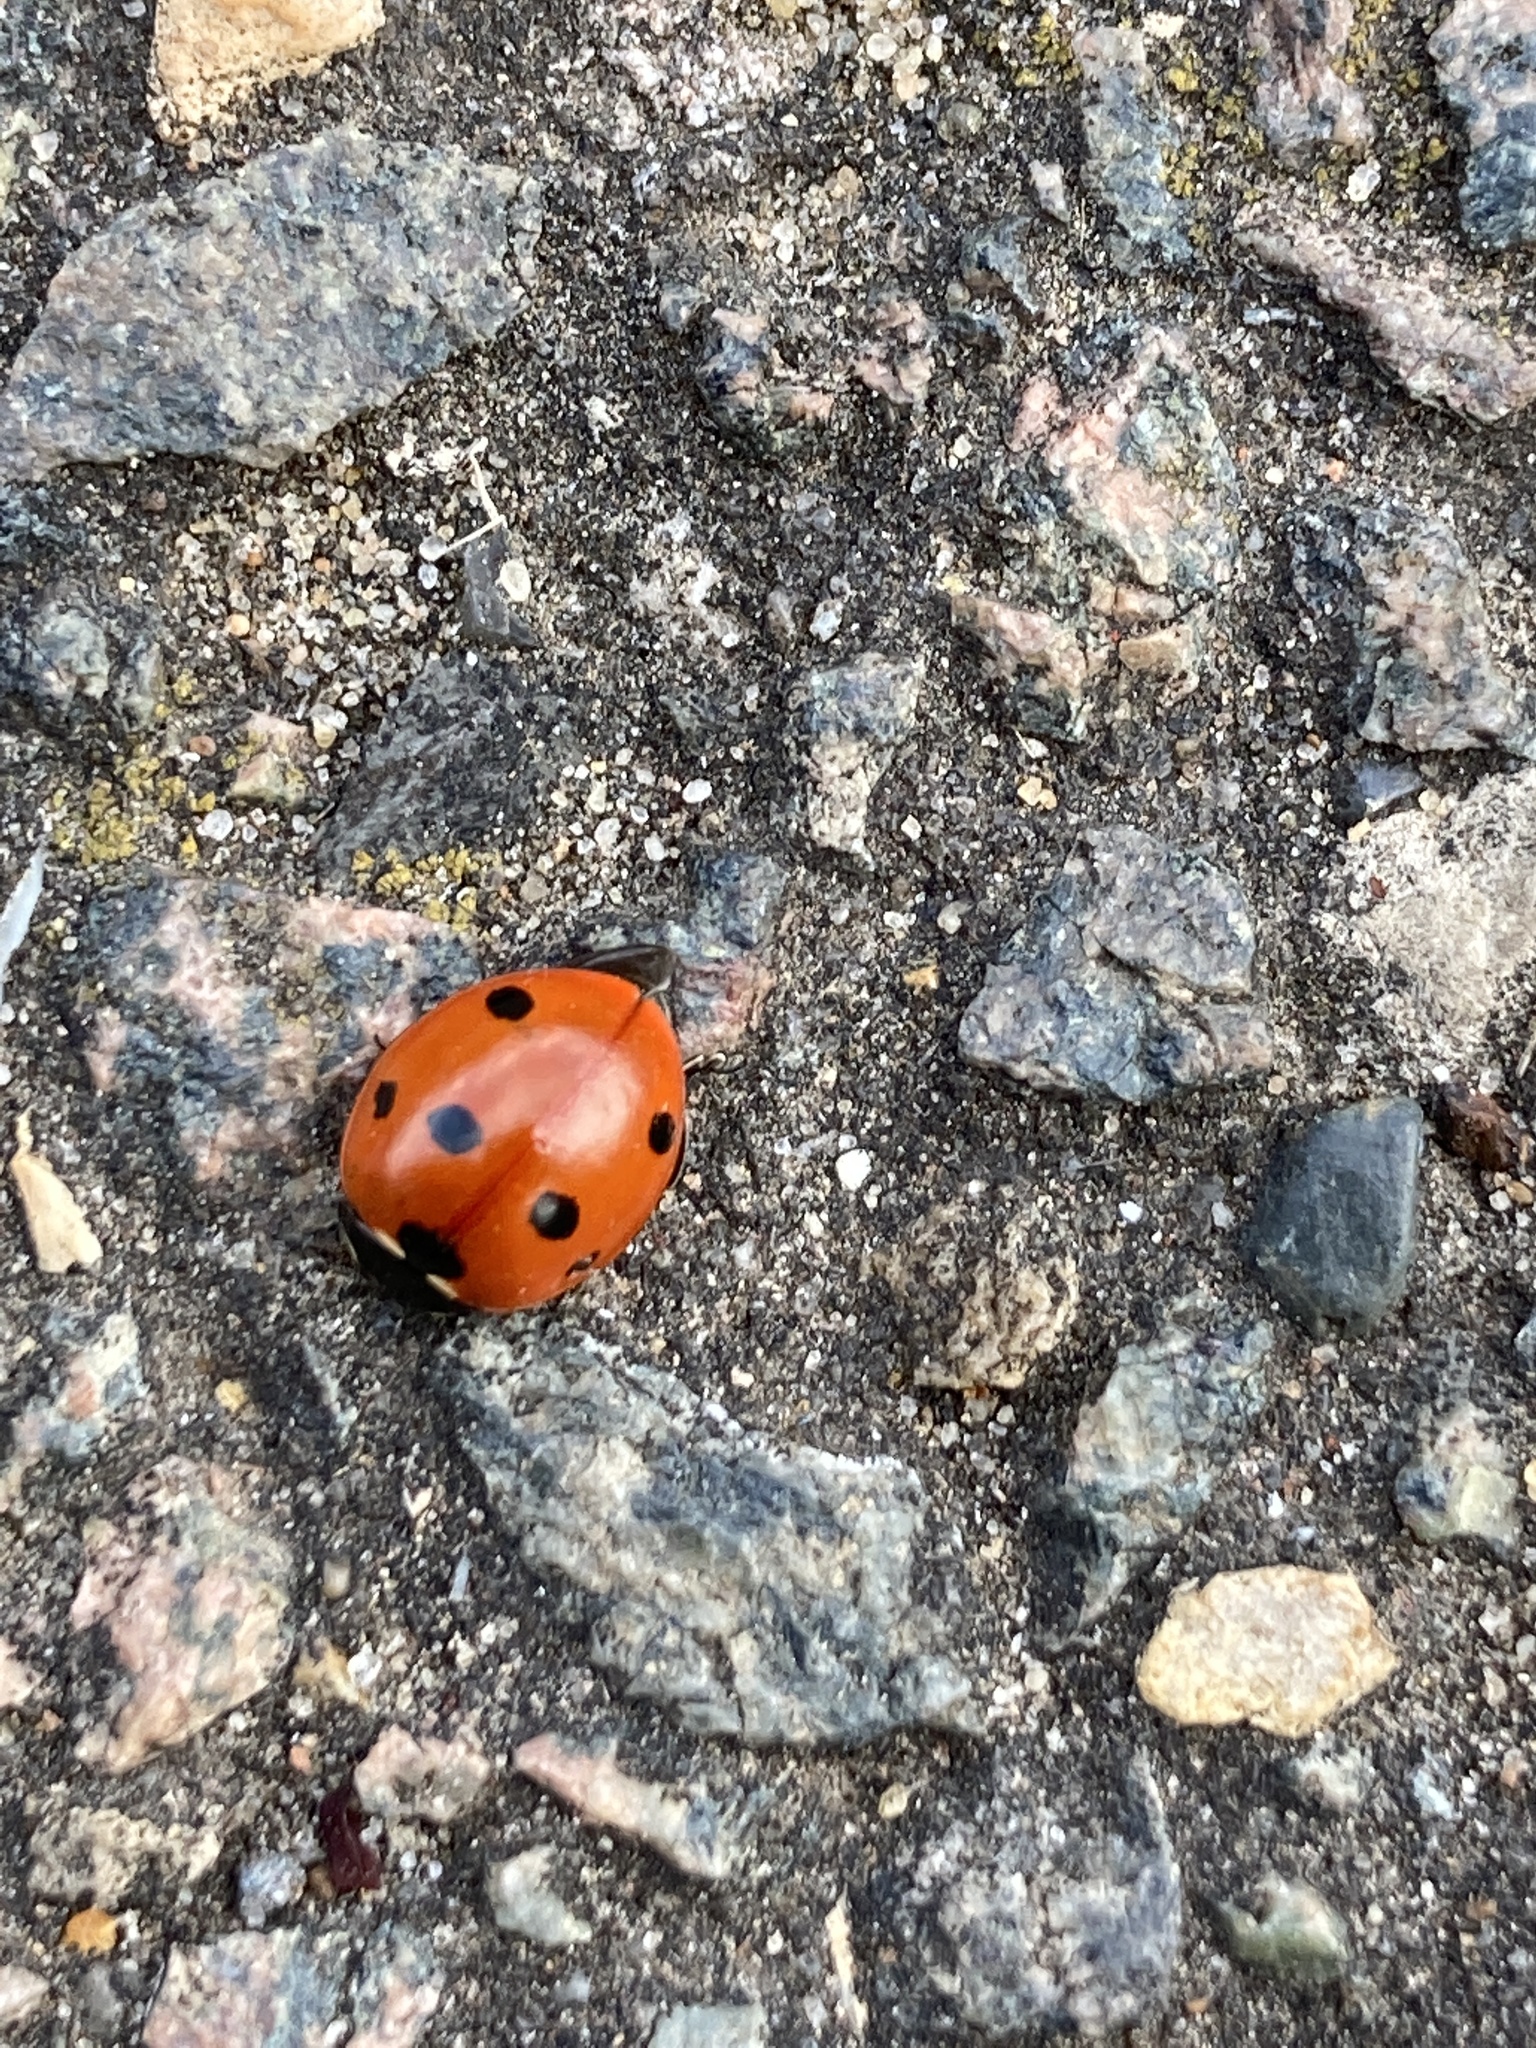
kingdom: Animalia
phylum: Arthropoda
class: Insecta
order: Coleoptera
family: Coccinellidae
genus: Coccinella
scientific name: Coccinella septempunctata
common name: Sevenspotted lady beetle
